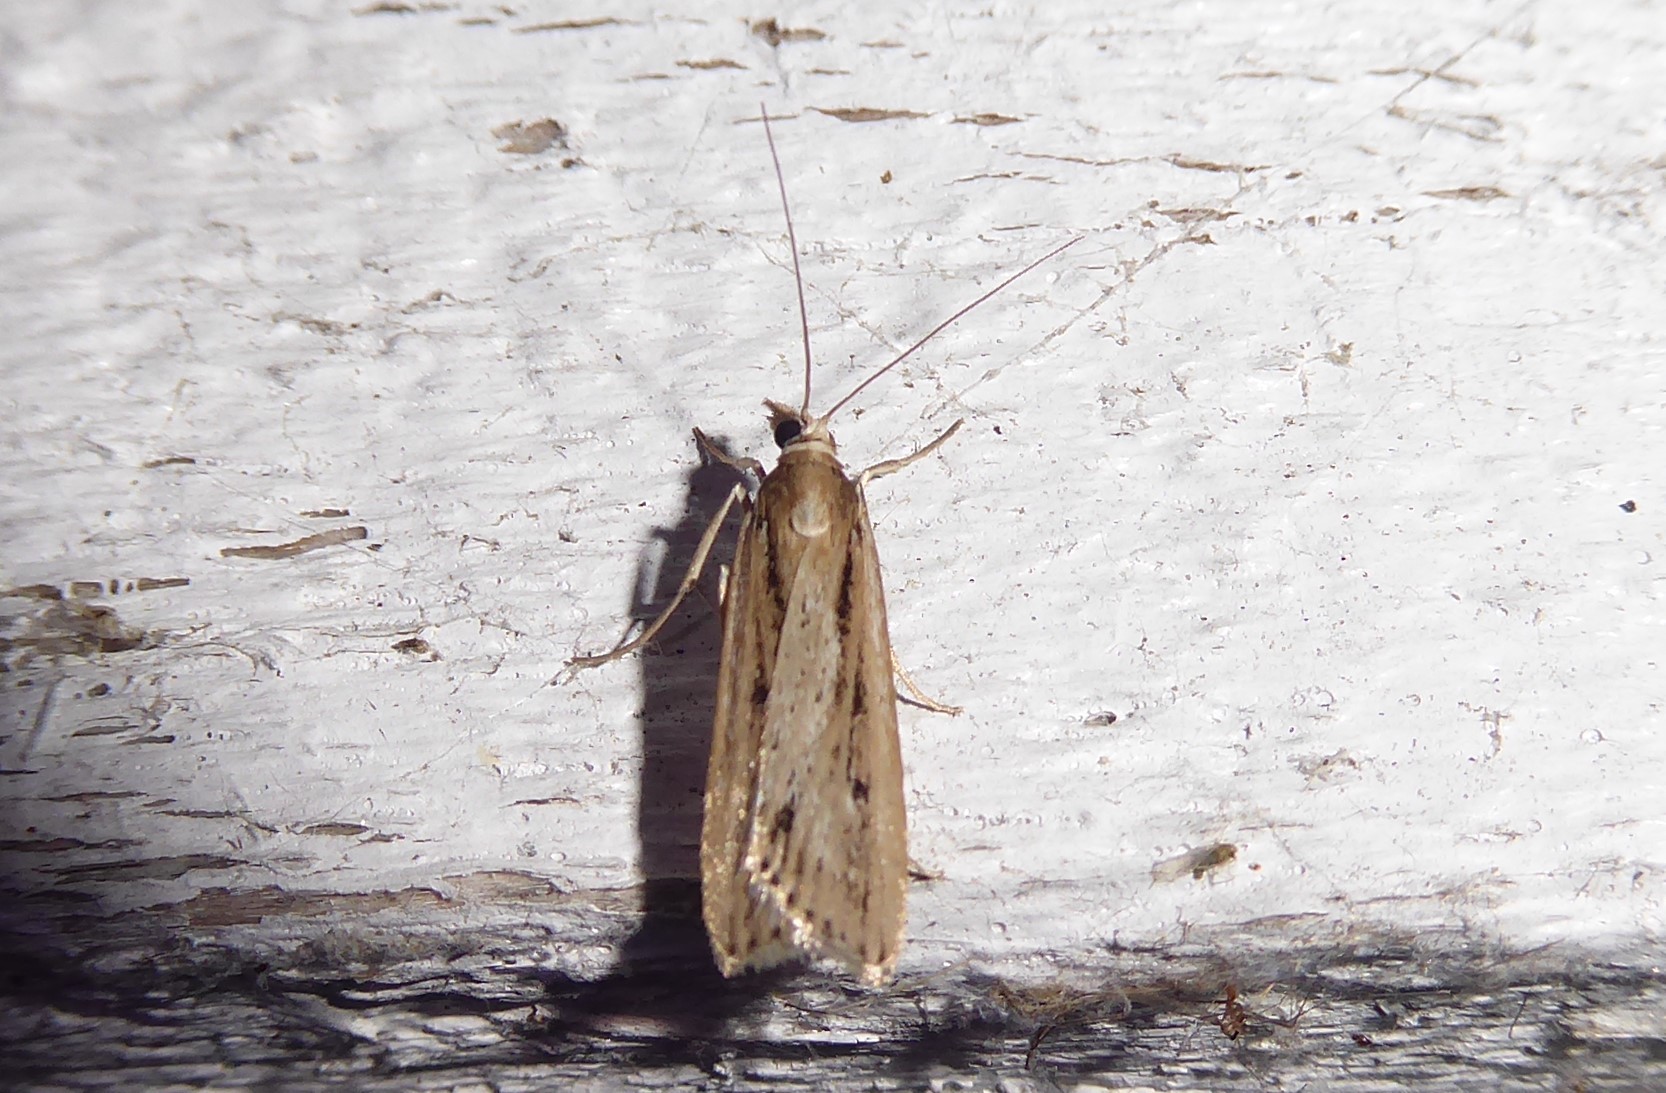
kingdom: Animalia
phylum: Arthropoda
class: Insecta
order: Lepidoptera
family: Crambidae
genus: Eudonia
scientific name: Eudonia sabulosella
